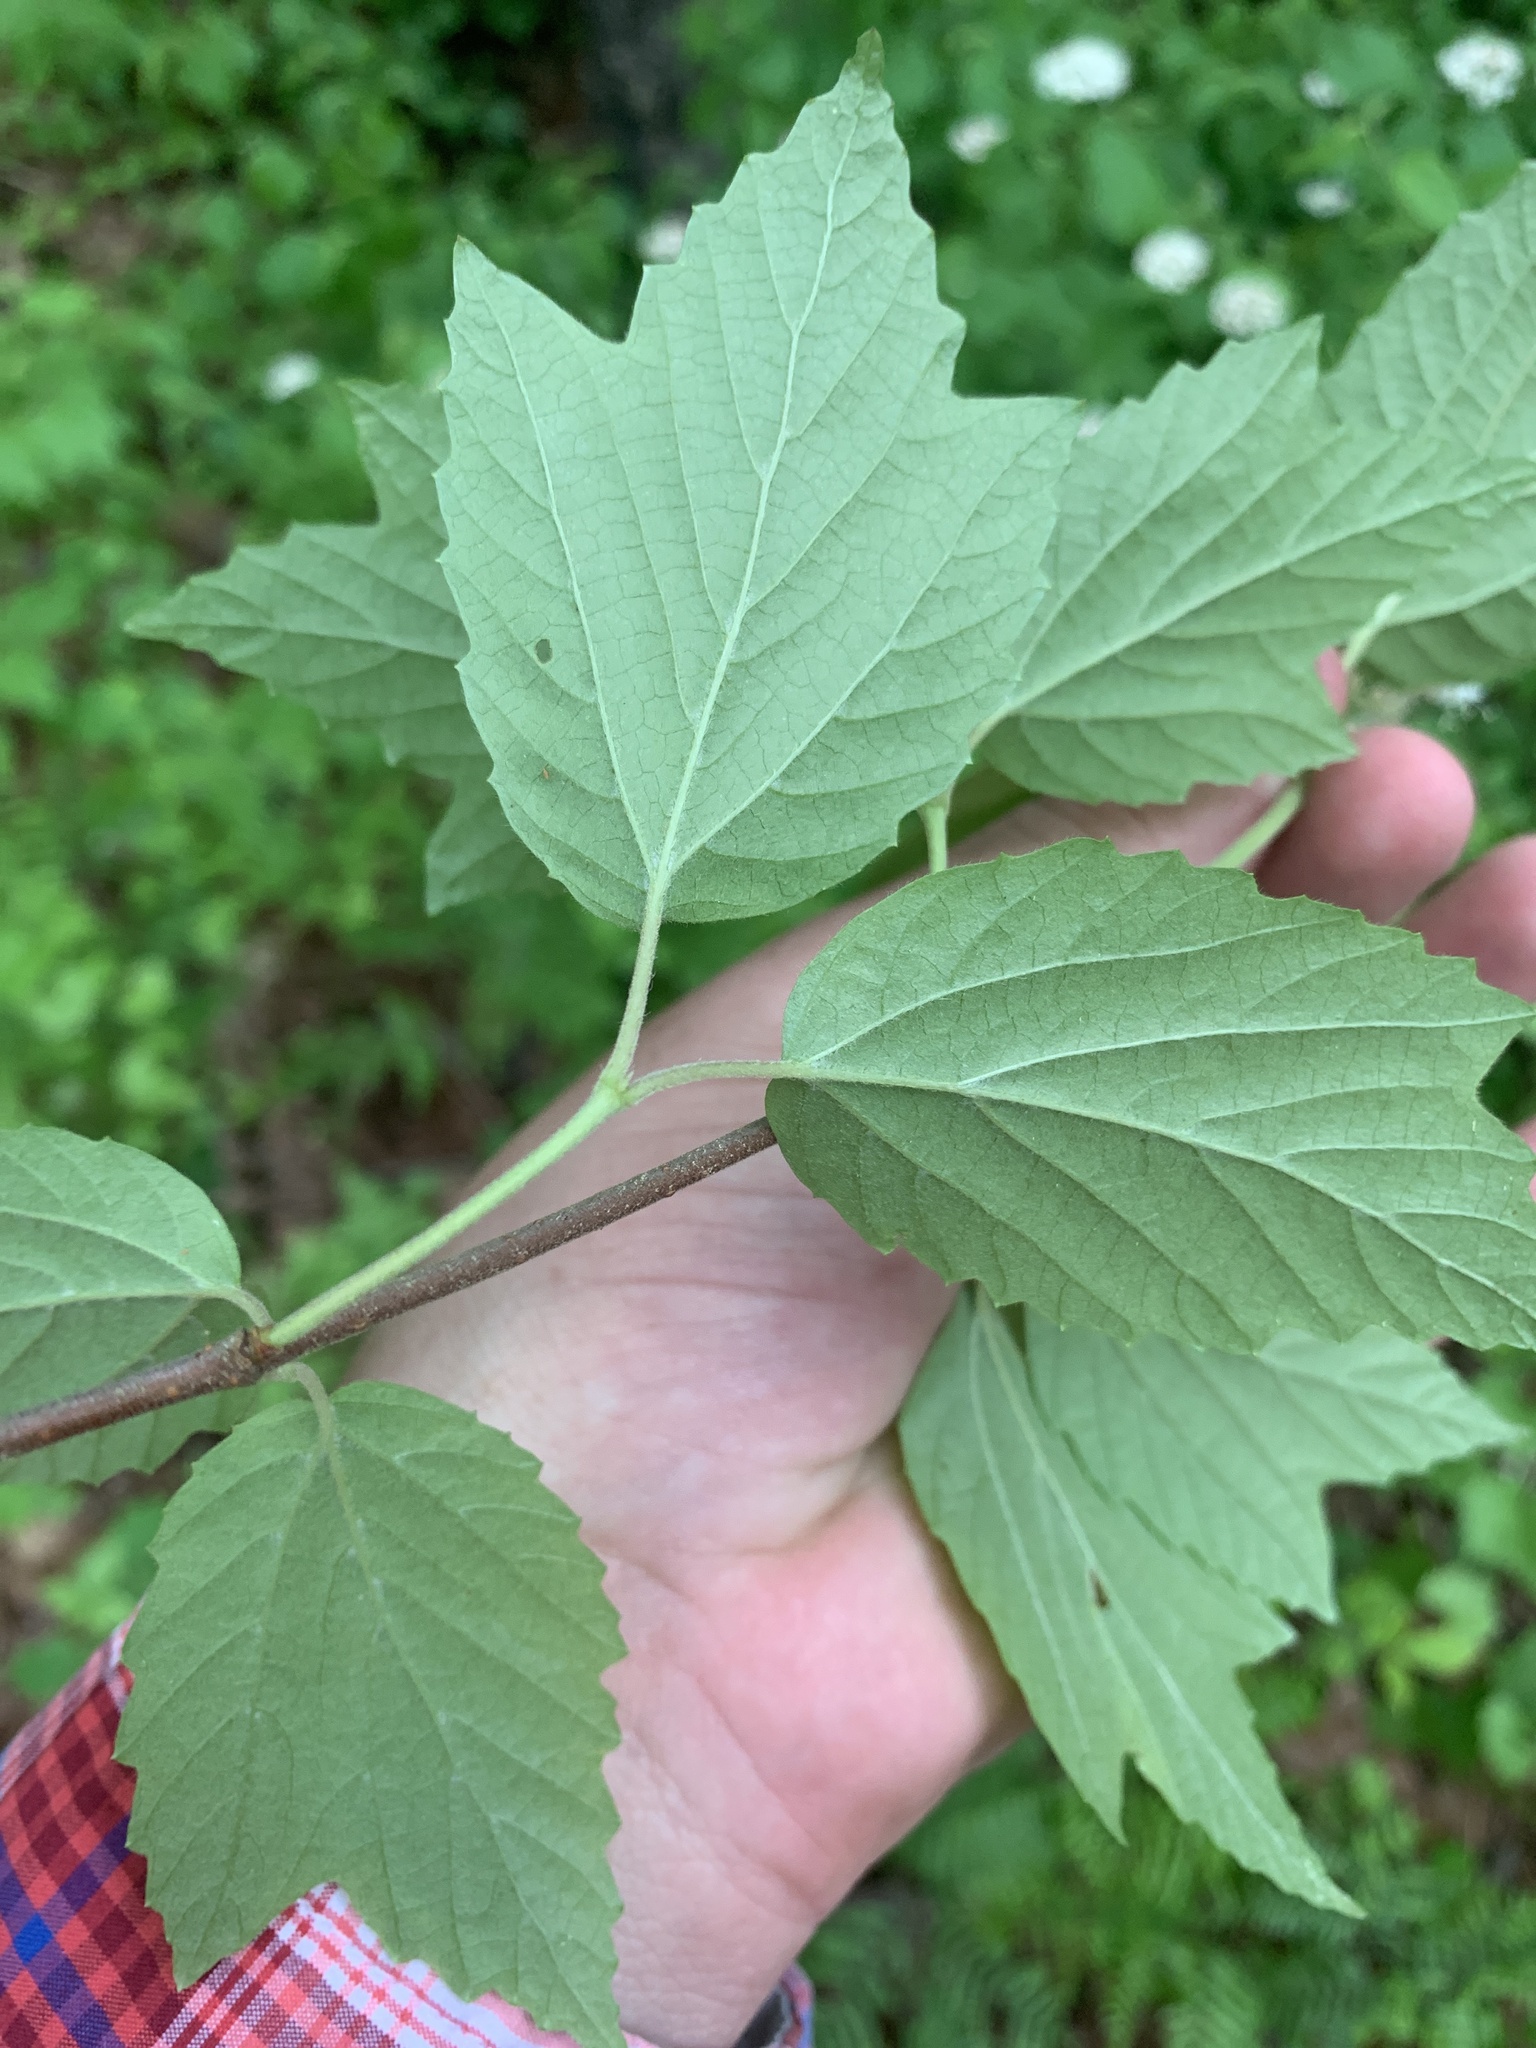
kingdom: Plantae
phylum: Tracheophyta
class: Magnoliopsida
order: Dipsacales
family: Viburnaceae
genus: Viburnum
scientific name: Viburnum acerifolium
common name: Dockmackie
